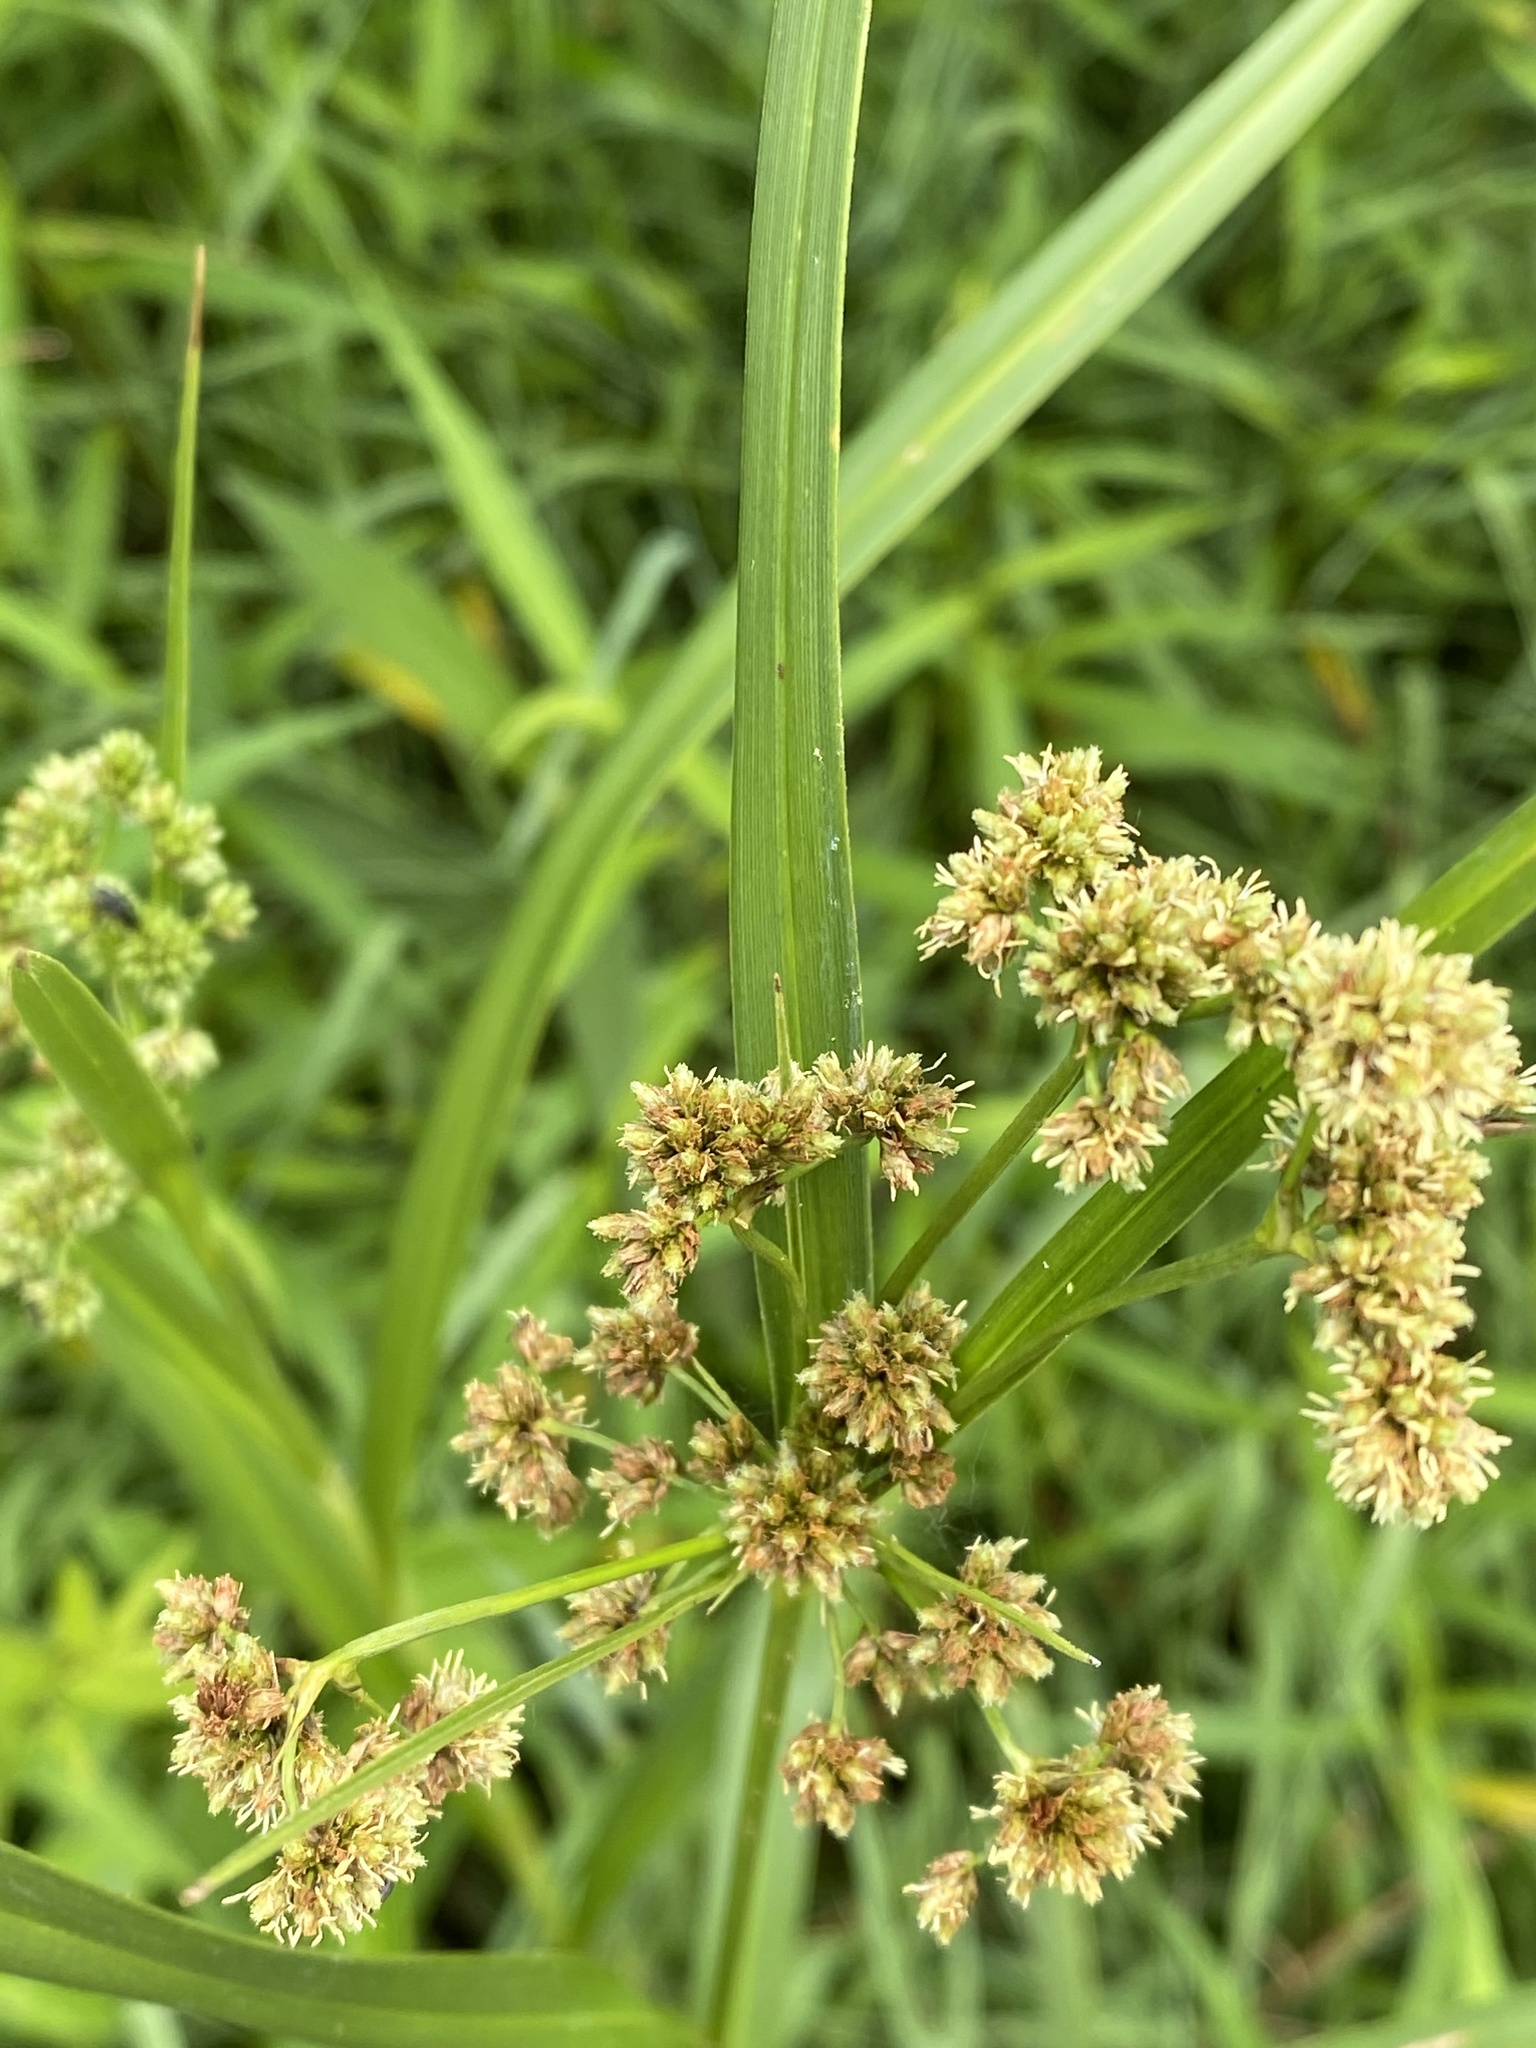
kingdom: Plantae
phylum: Tracheophyta
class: Liliopsida
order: Poales
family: Cyperaceae
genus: Scirpus
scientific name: Scirpus atrovirens
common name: Black bulrush
